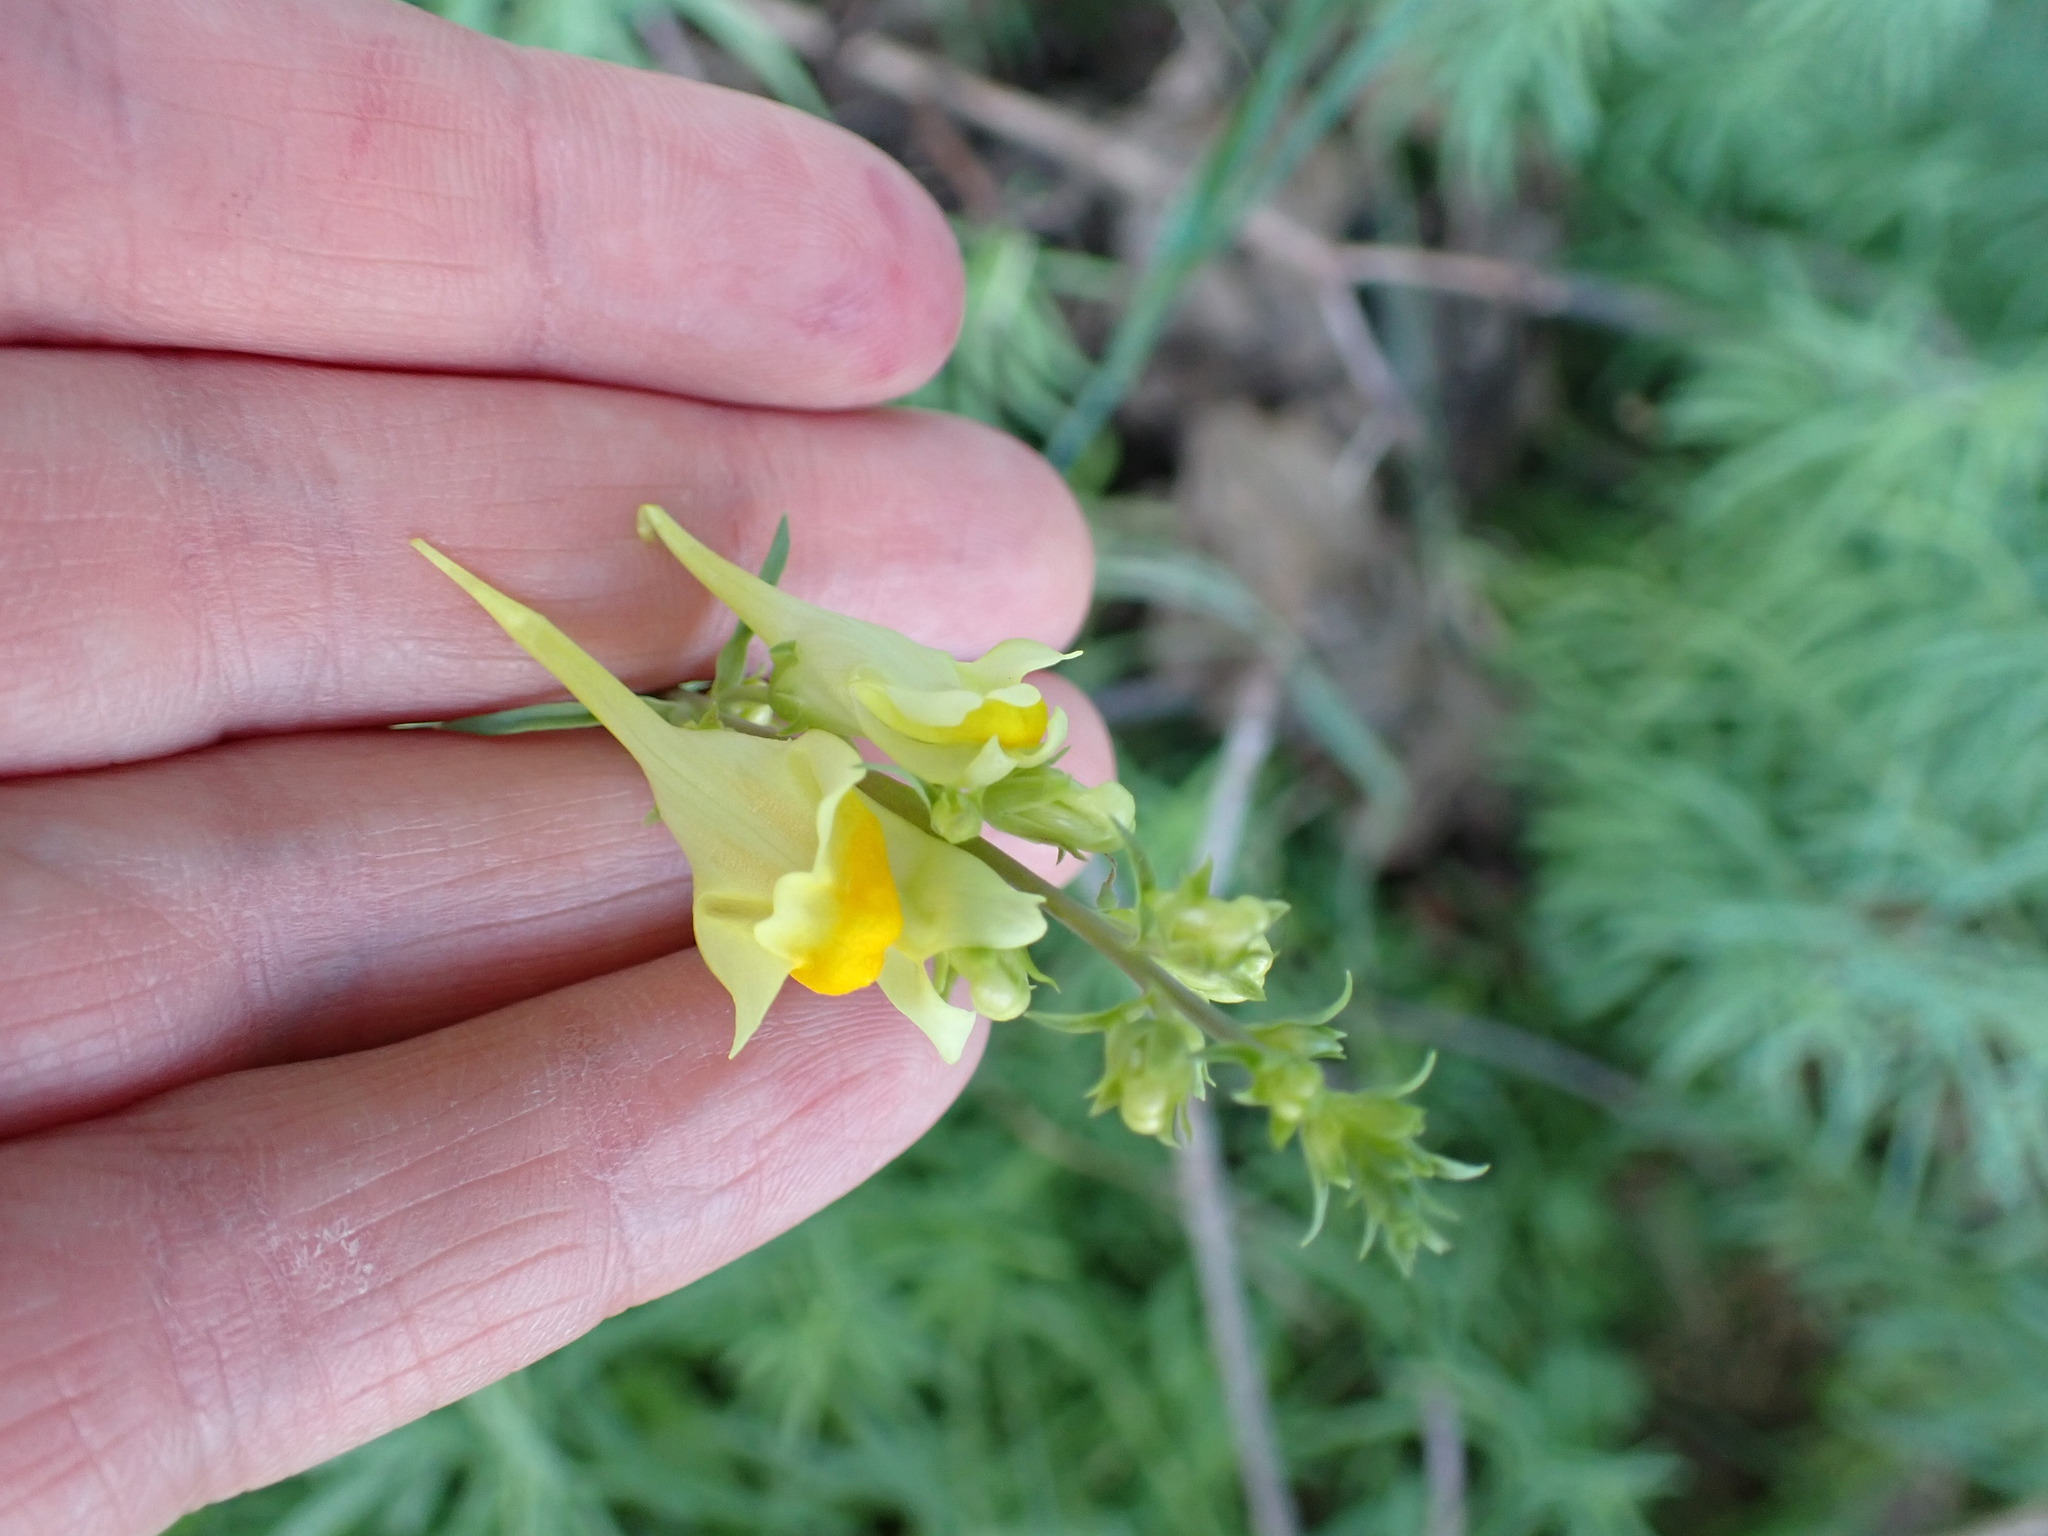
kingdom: Plantae
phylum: Tracheophyta
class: Magnoliopsida
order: Lamiales
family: Plantaginaceae
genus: Linaria
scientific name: Linaria vulgaris
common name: Butter and eggs
